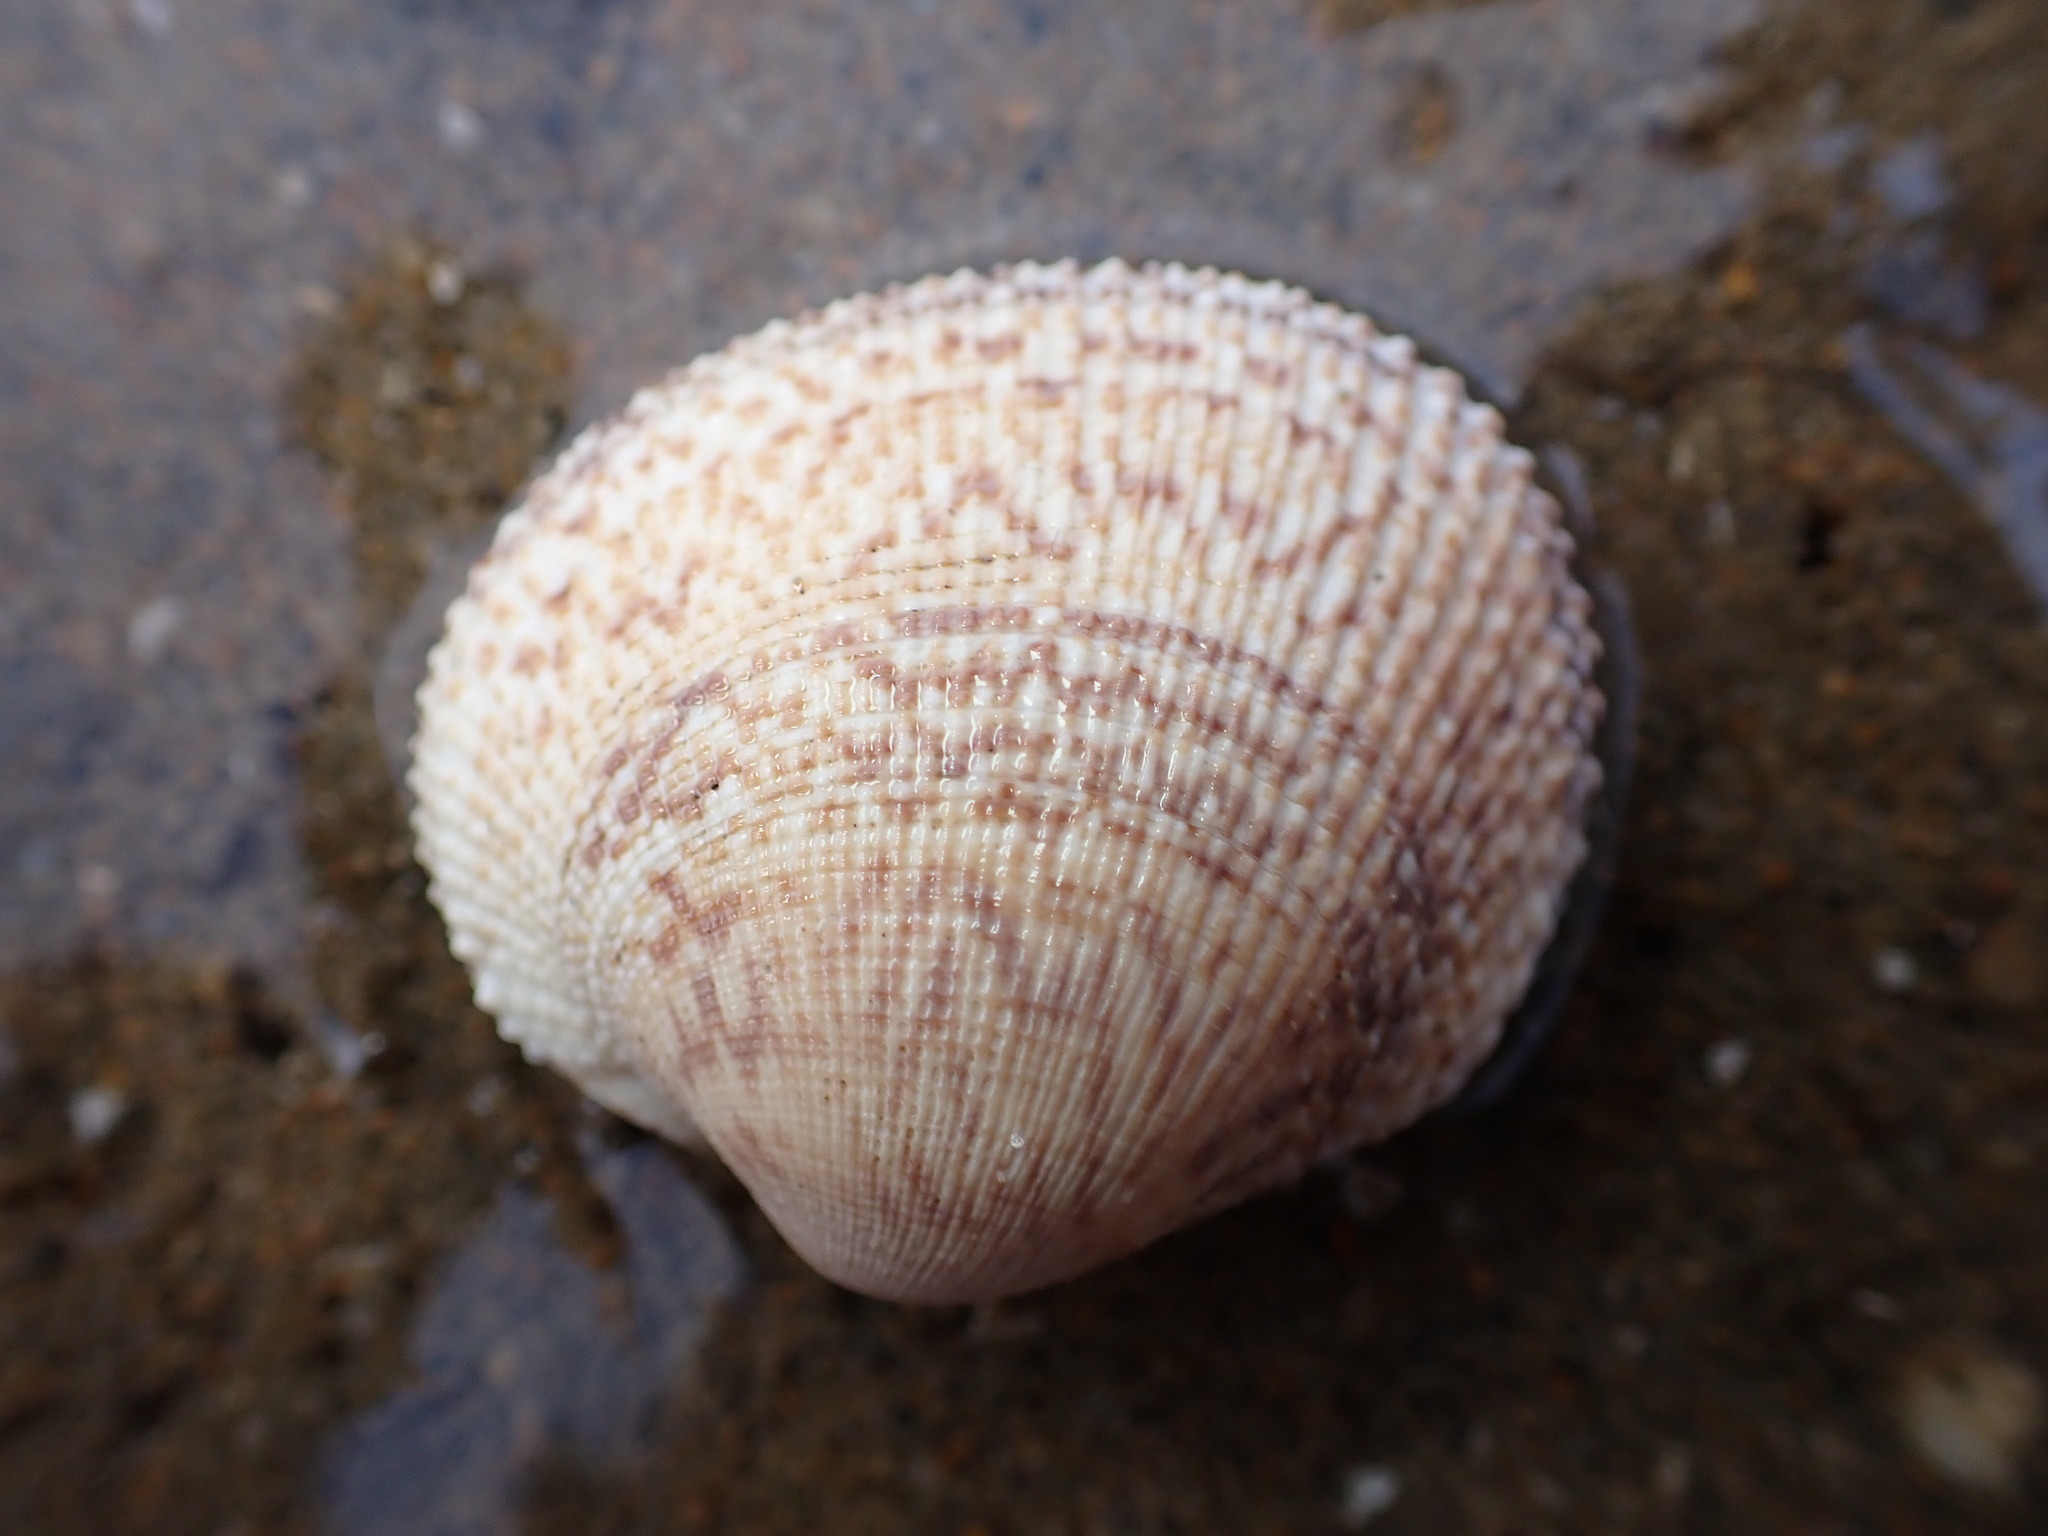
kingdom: Animalia
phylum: Mollusca
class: Bivalvia
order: Venerida
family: Veneridae
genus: Leukoma
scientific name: Leukoma staminea
